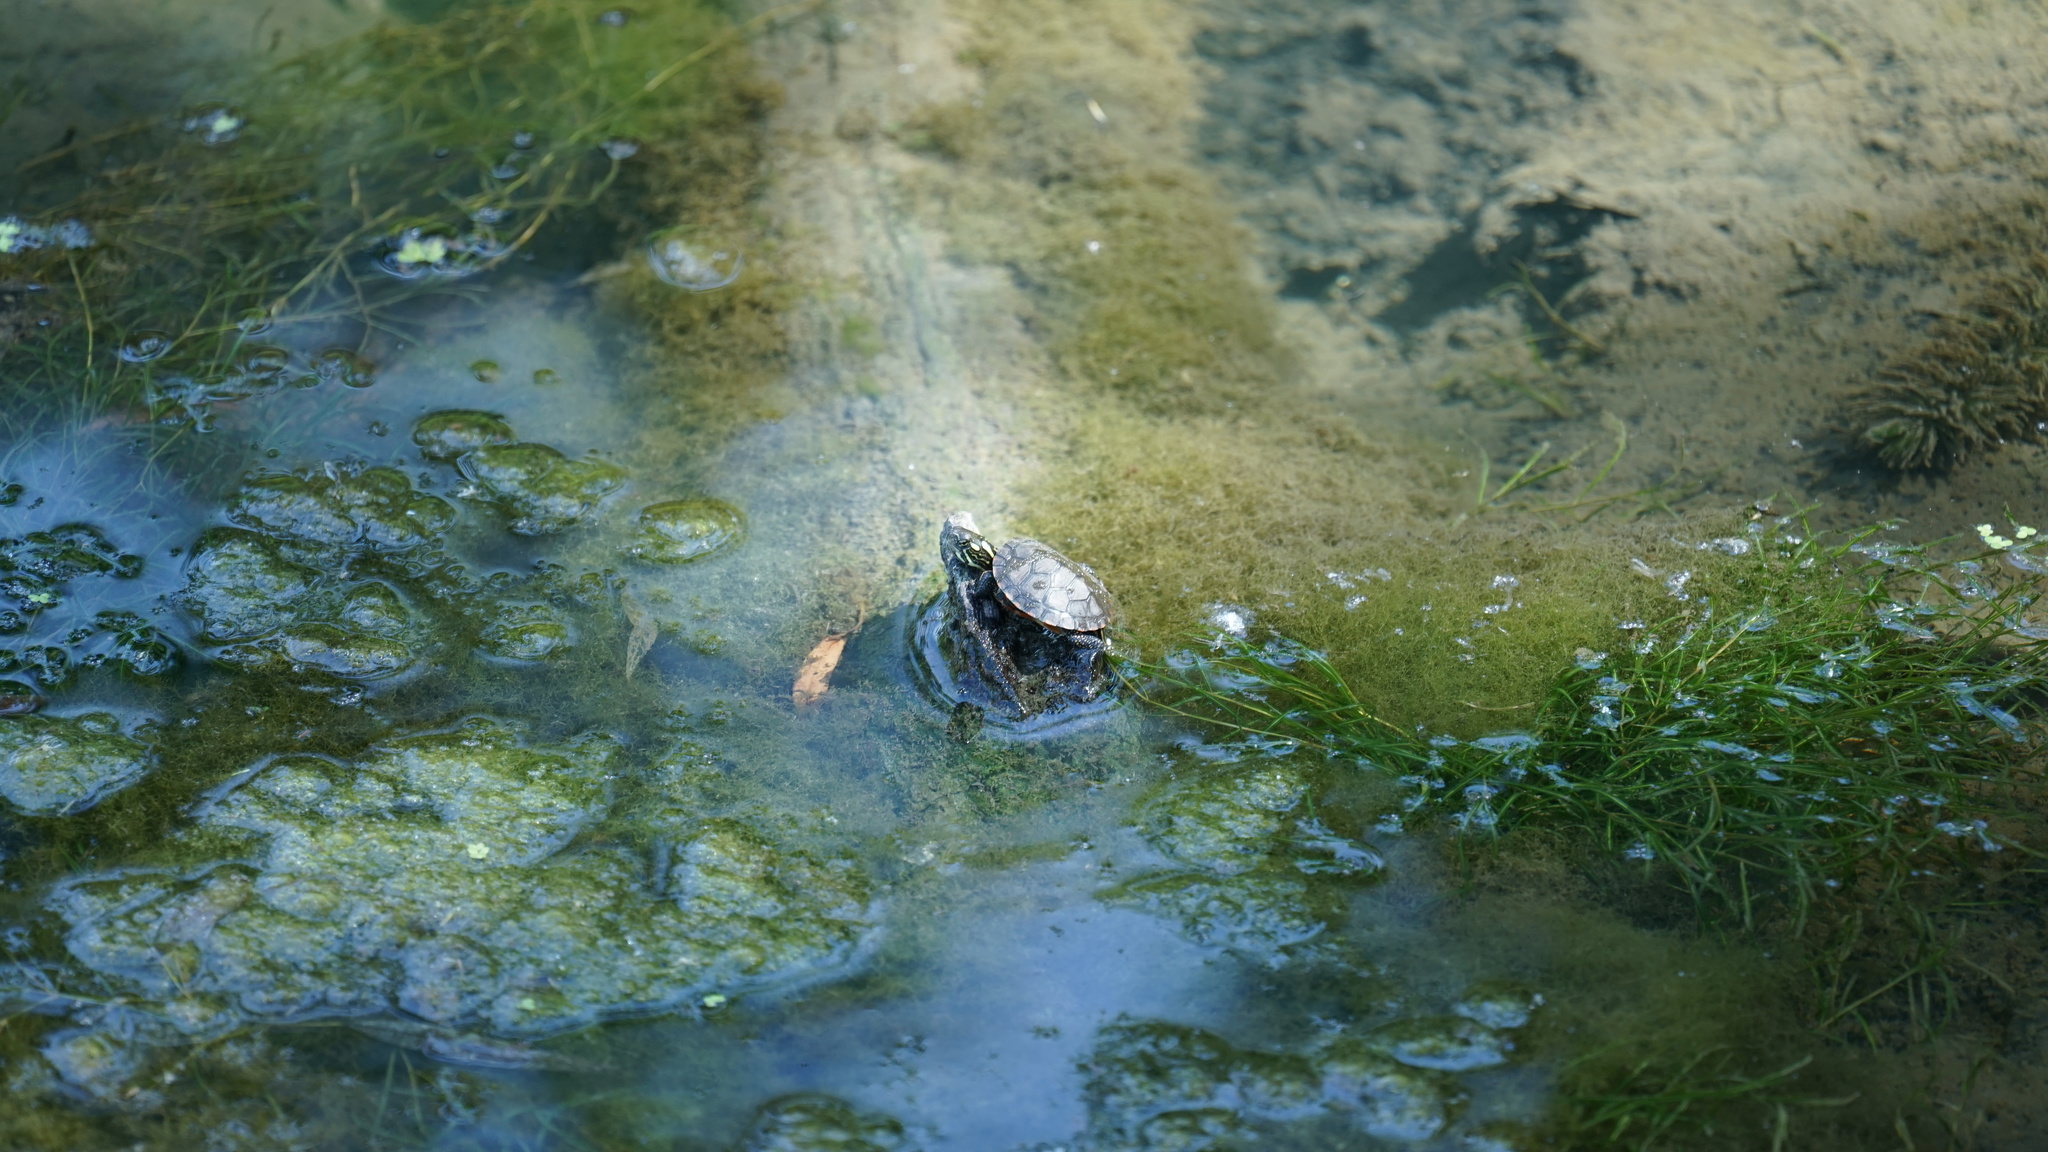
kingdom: Animalia
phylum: Chordata
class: Testudines
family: Emydidae
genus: Chrysemys
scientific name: Chrysemys picta
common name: Painted turtle
